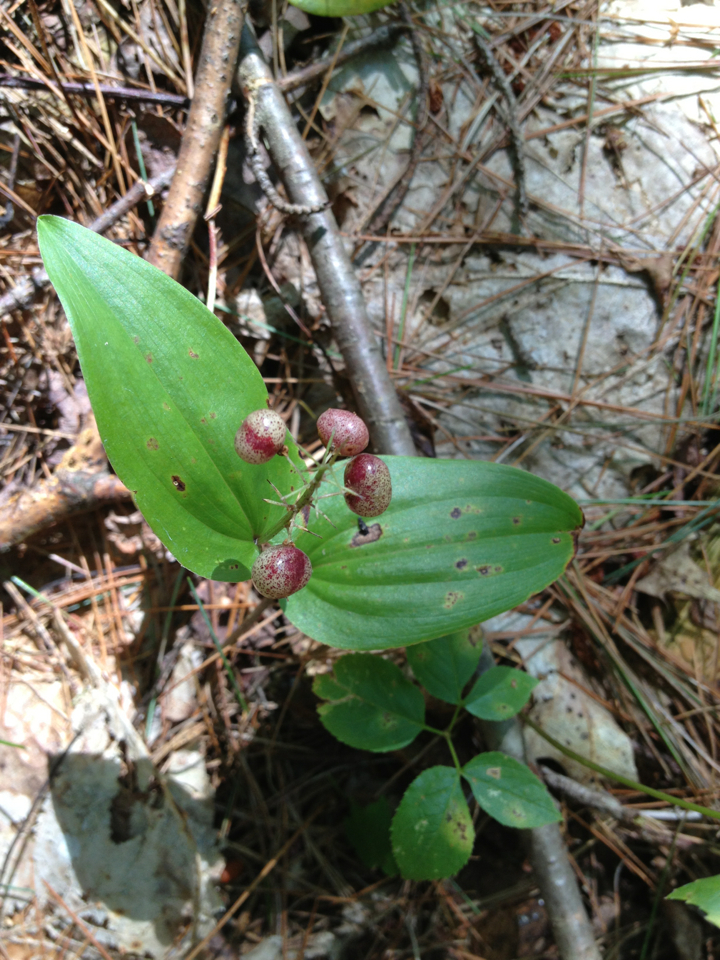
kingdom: Plantae
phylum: Tracheophyta
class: Liliopsida
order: Asparagales
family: Asparagaceae
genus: Maianthemum
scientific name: Maianthemum canadense
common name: False lily-of-the-valley
